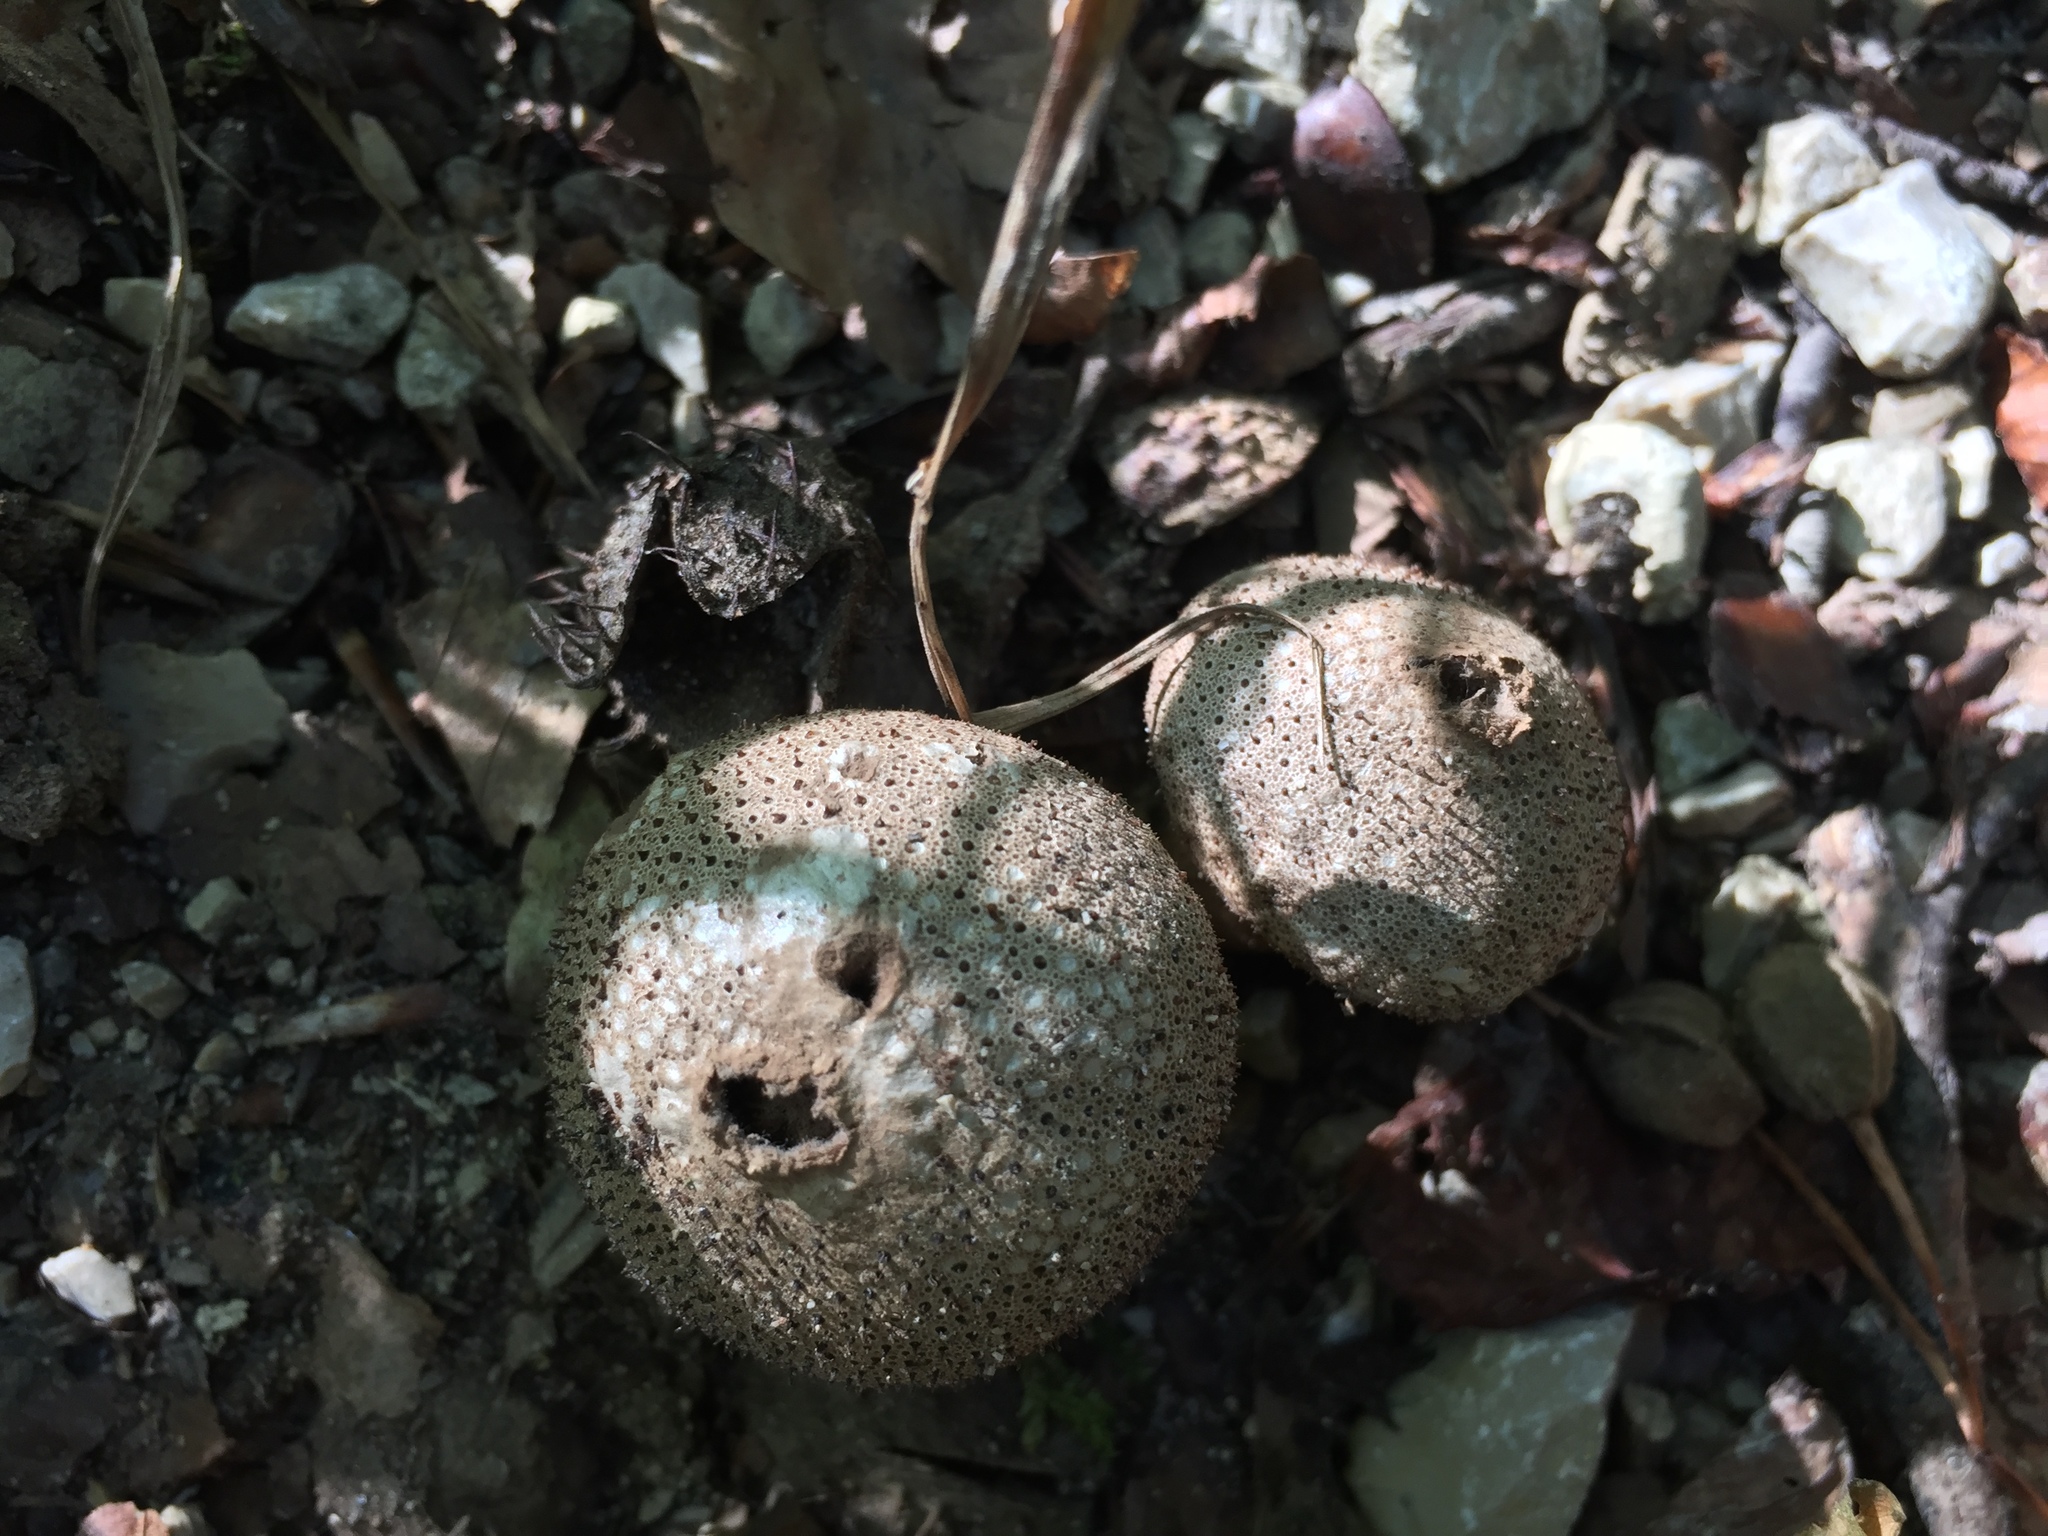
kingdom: Fungi
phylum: Basidiomycota
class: Agaricomycetes
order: Agaricales
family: Lycoperdaceae
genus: Lycoperdon
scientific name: Lycoperdon perlatum
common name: Common puffball
